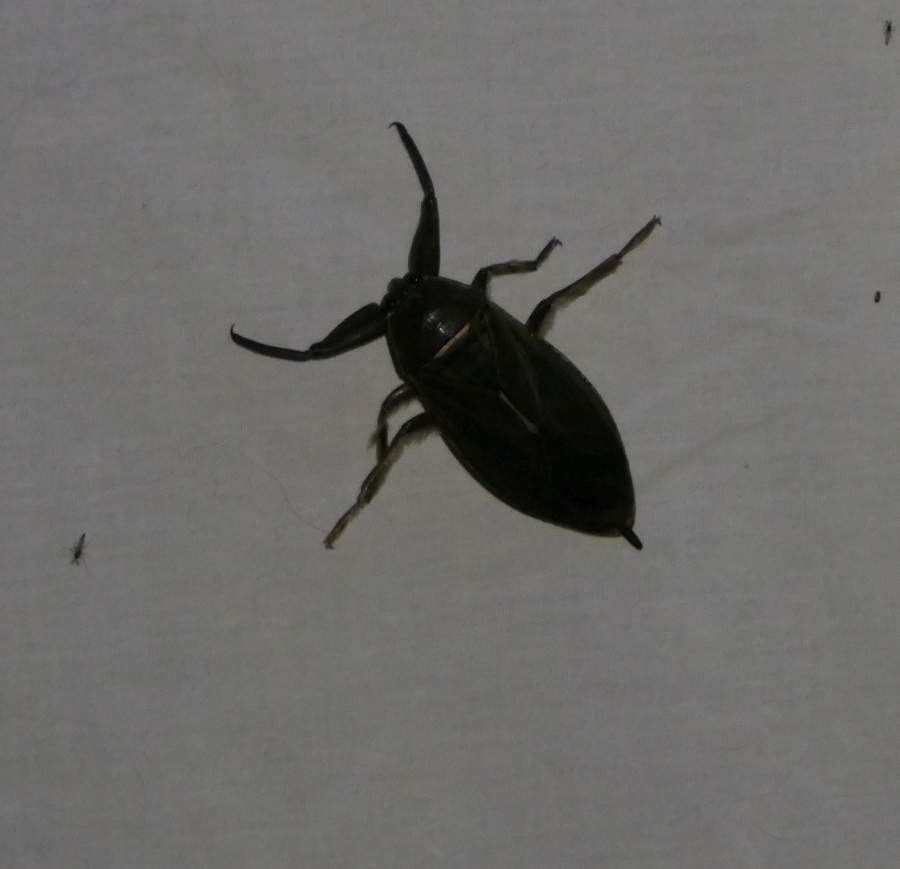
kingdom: Animalia
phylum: Arthropoda
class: Insecta
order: Hemiptera
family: Belostomatidae
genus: Lethocerus
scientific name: Lethocerus americanus
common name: Giant water bug
